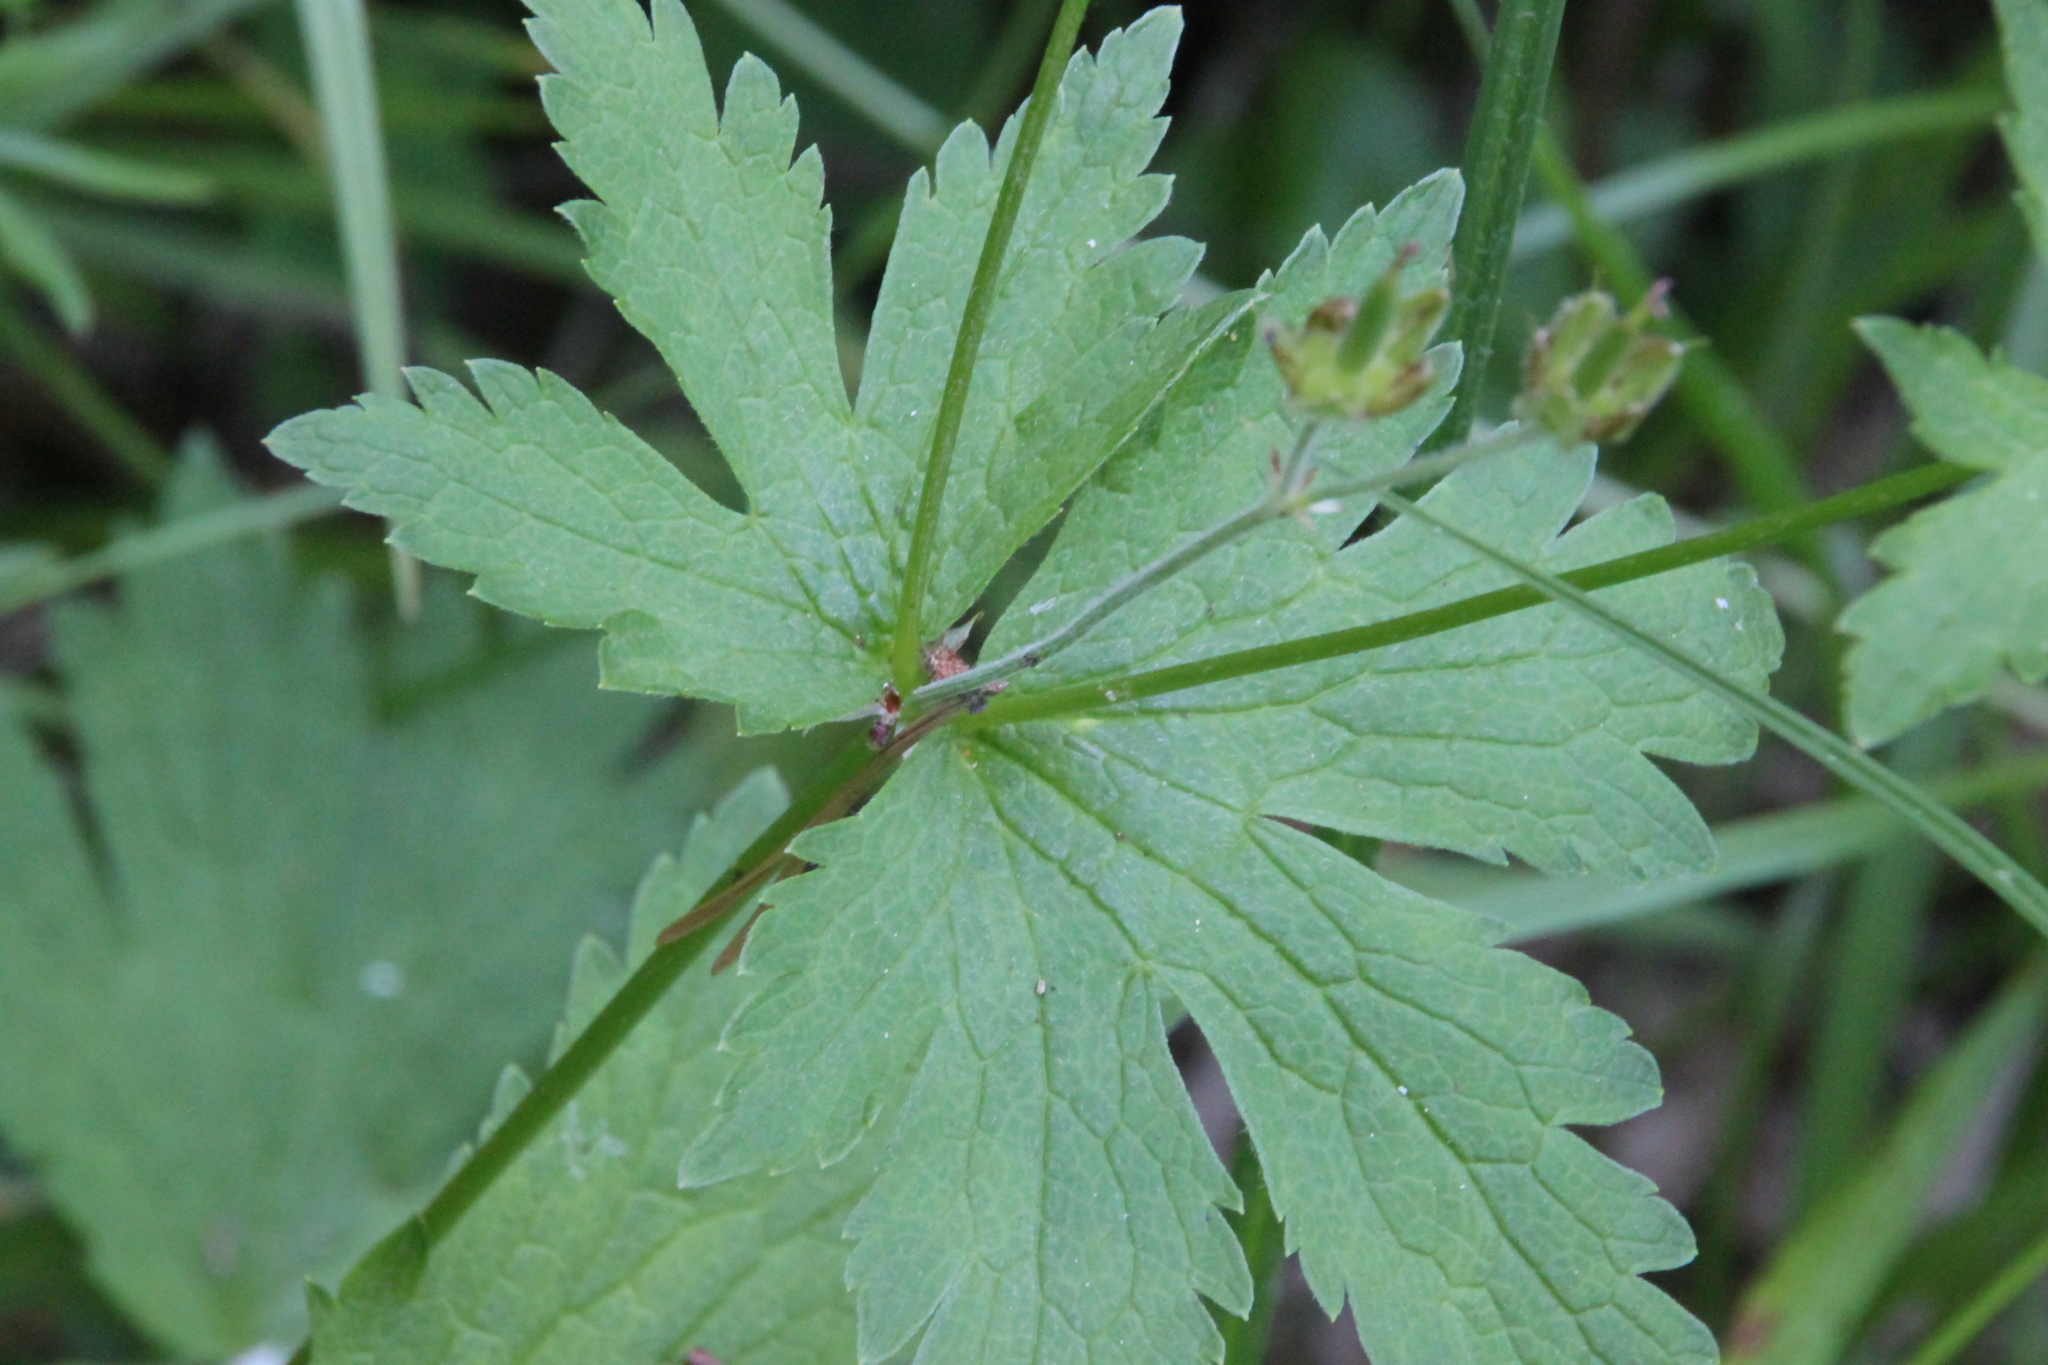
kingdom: Plantae
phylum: Tracheophyta
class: Magnoliopsida
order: Geraniales
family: Geraniaceae
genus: Geranium
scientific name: Geranium sylvaticum
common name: Wood crane's-bill
